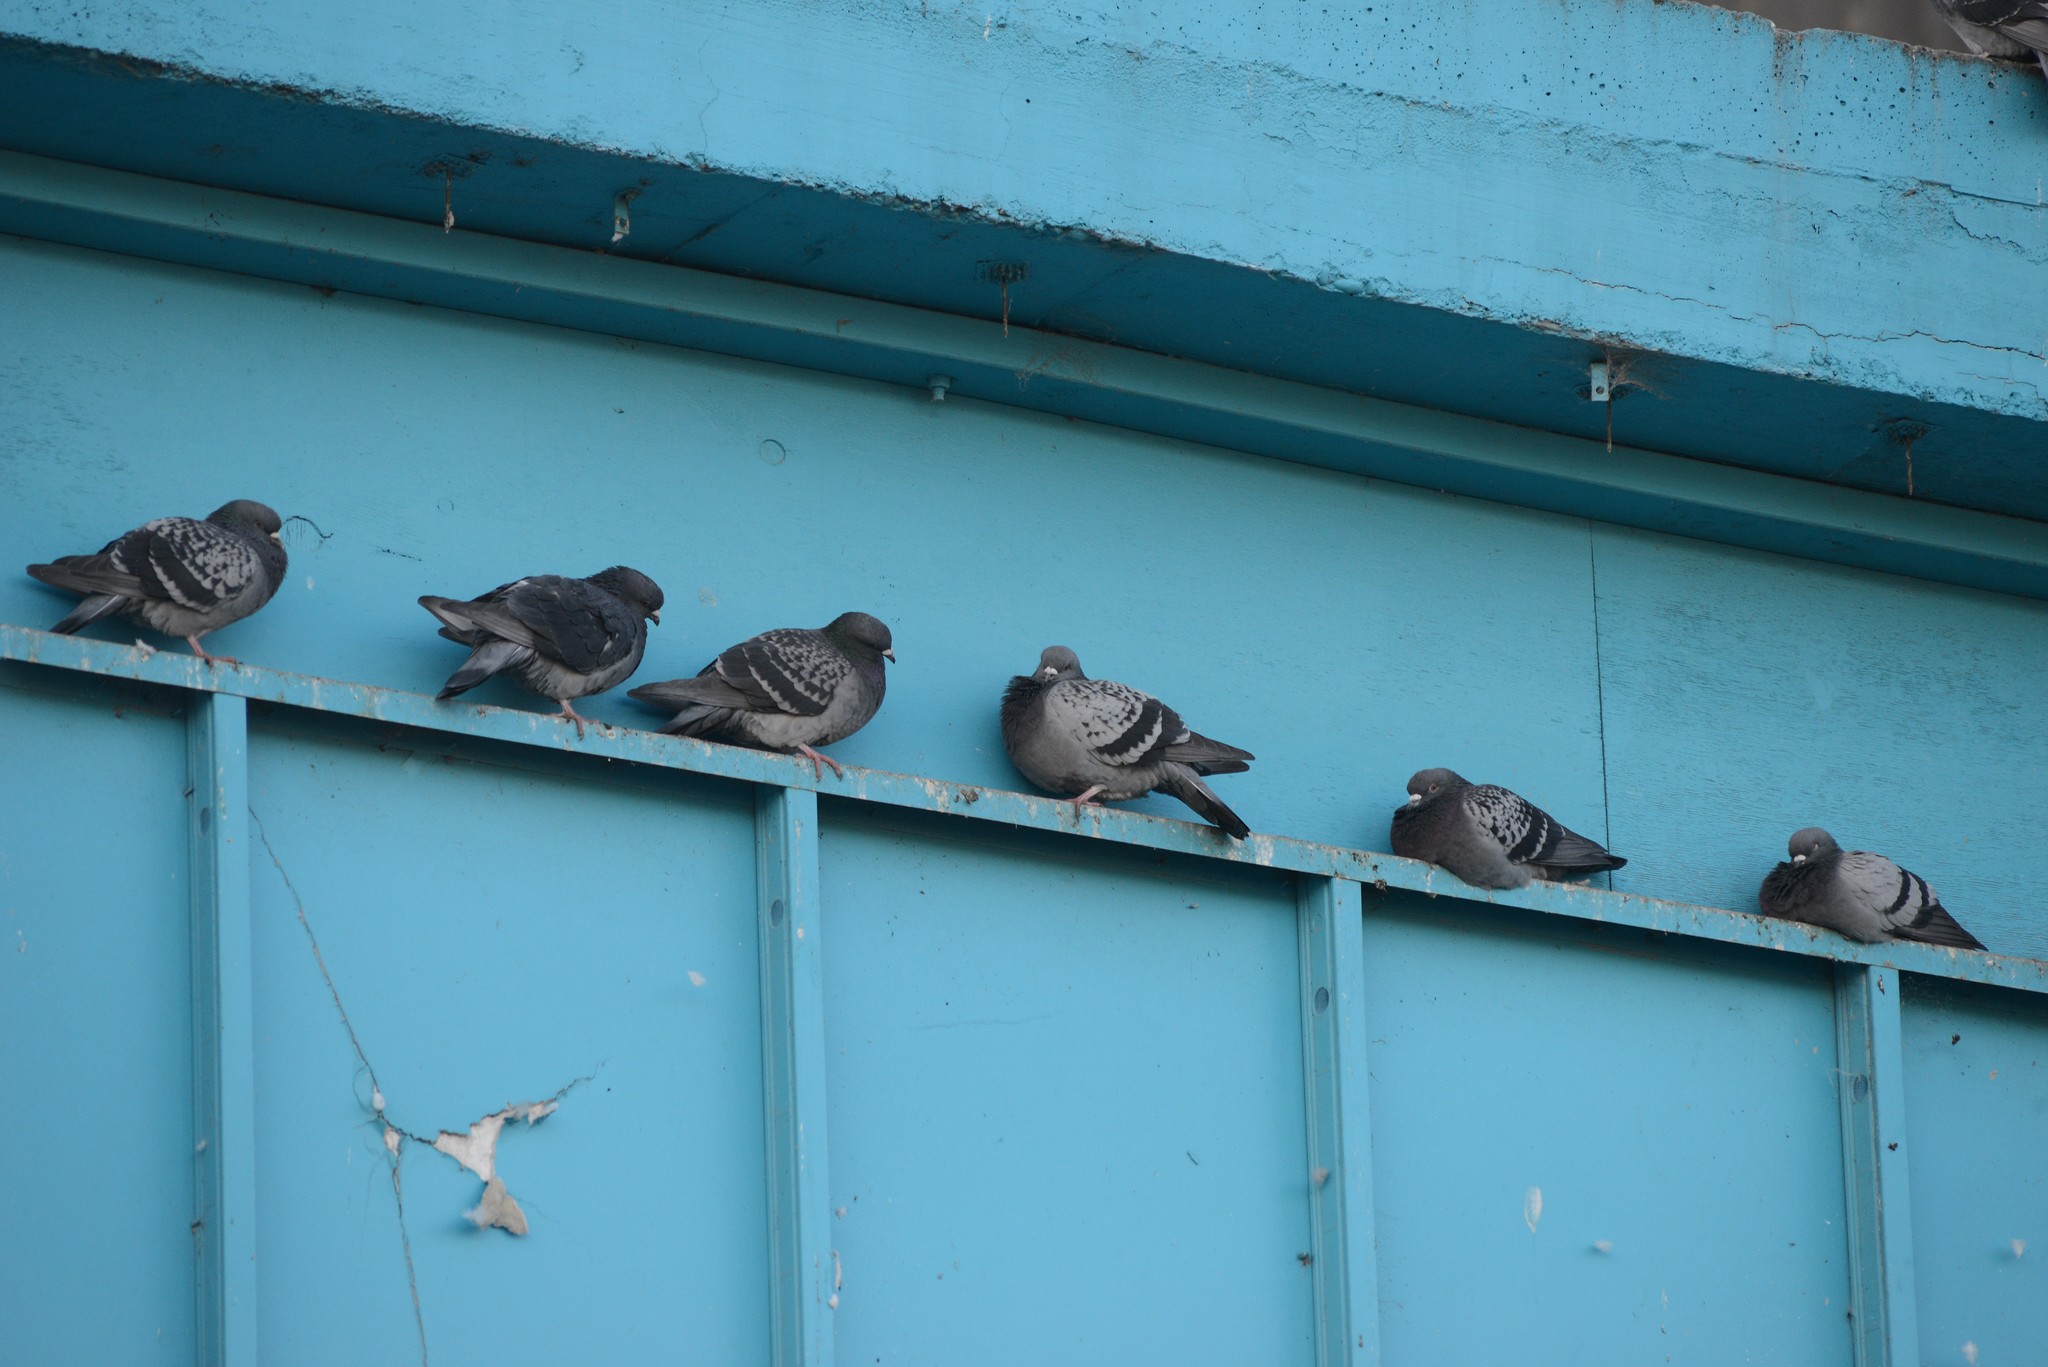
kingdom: Animalia
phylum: Chordata
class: Aves
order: Columbiformes
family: Columbidae
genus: Columba
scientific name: Columba livia
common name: Rock pigeon
